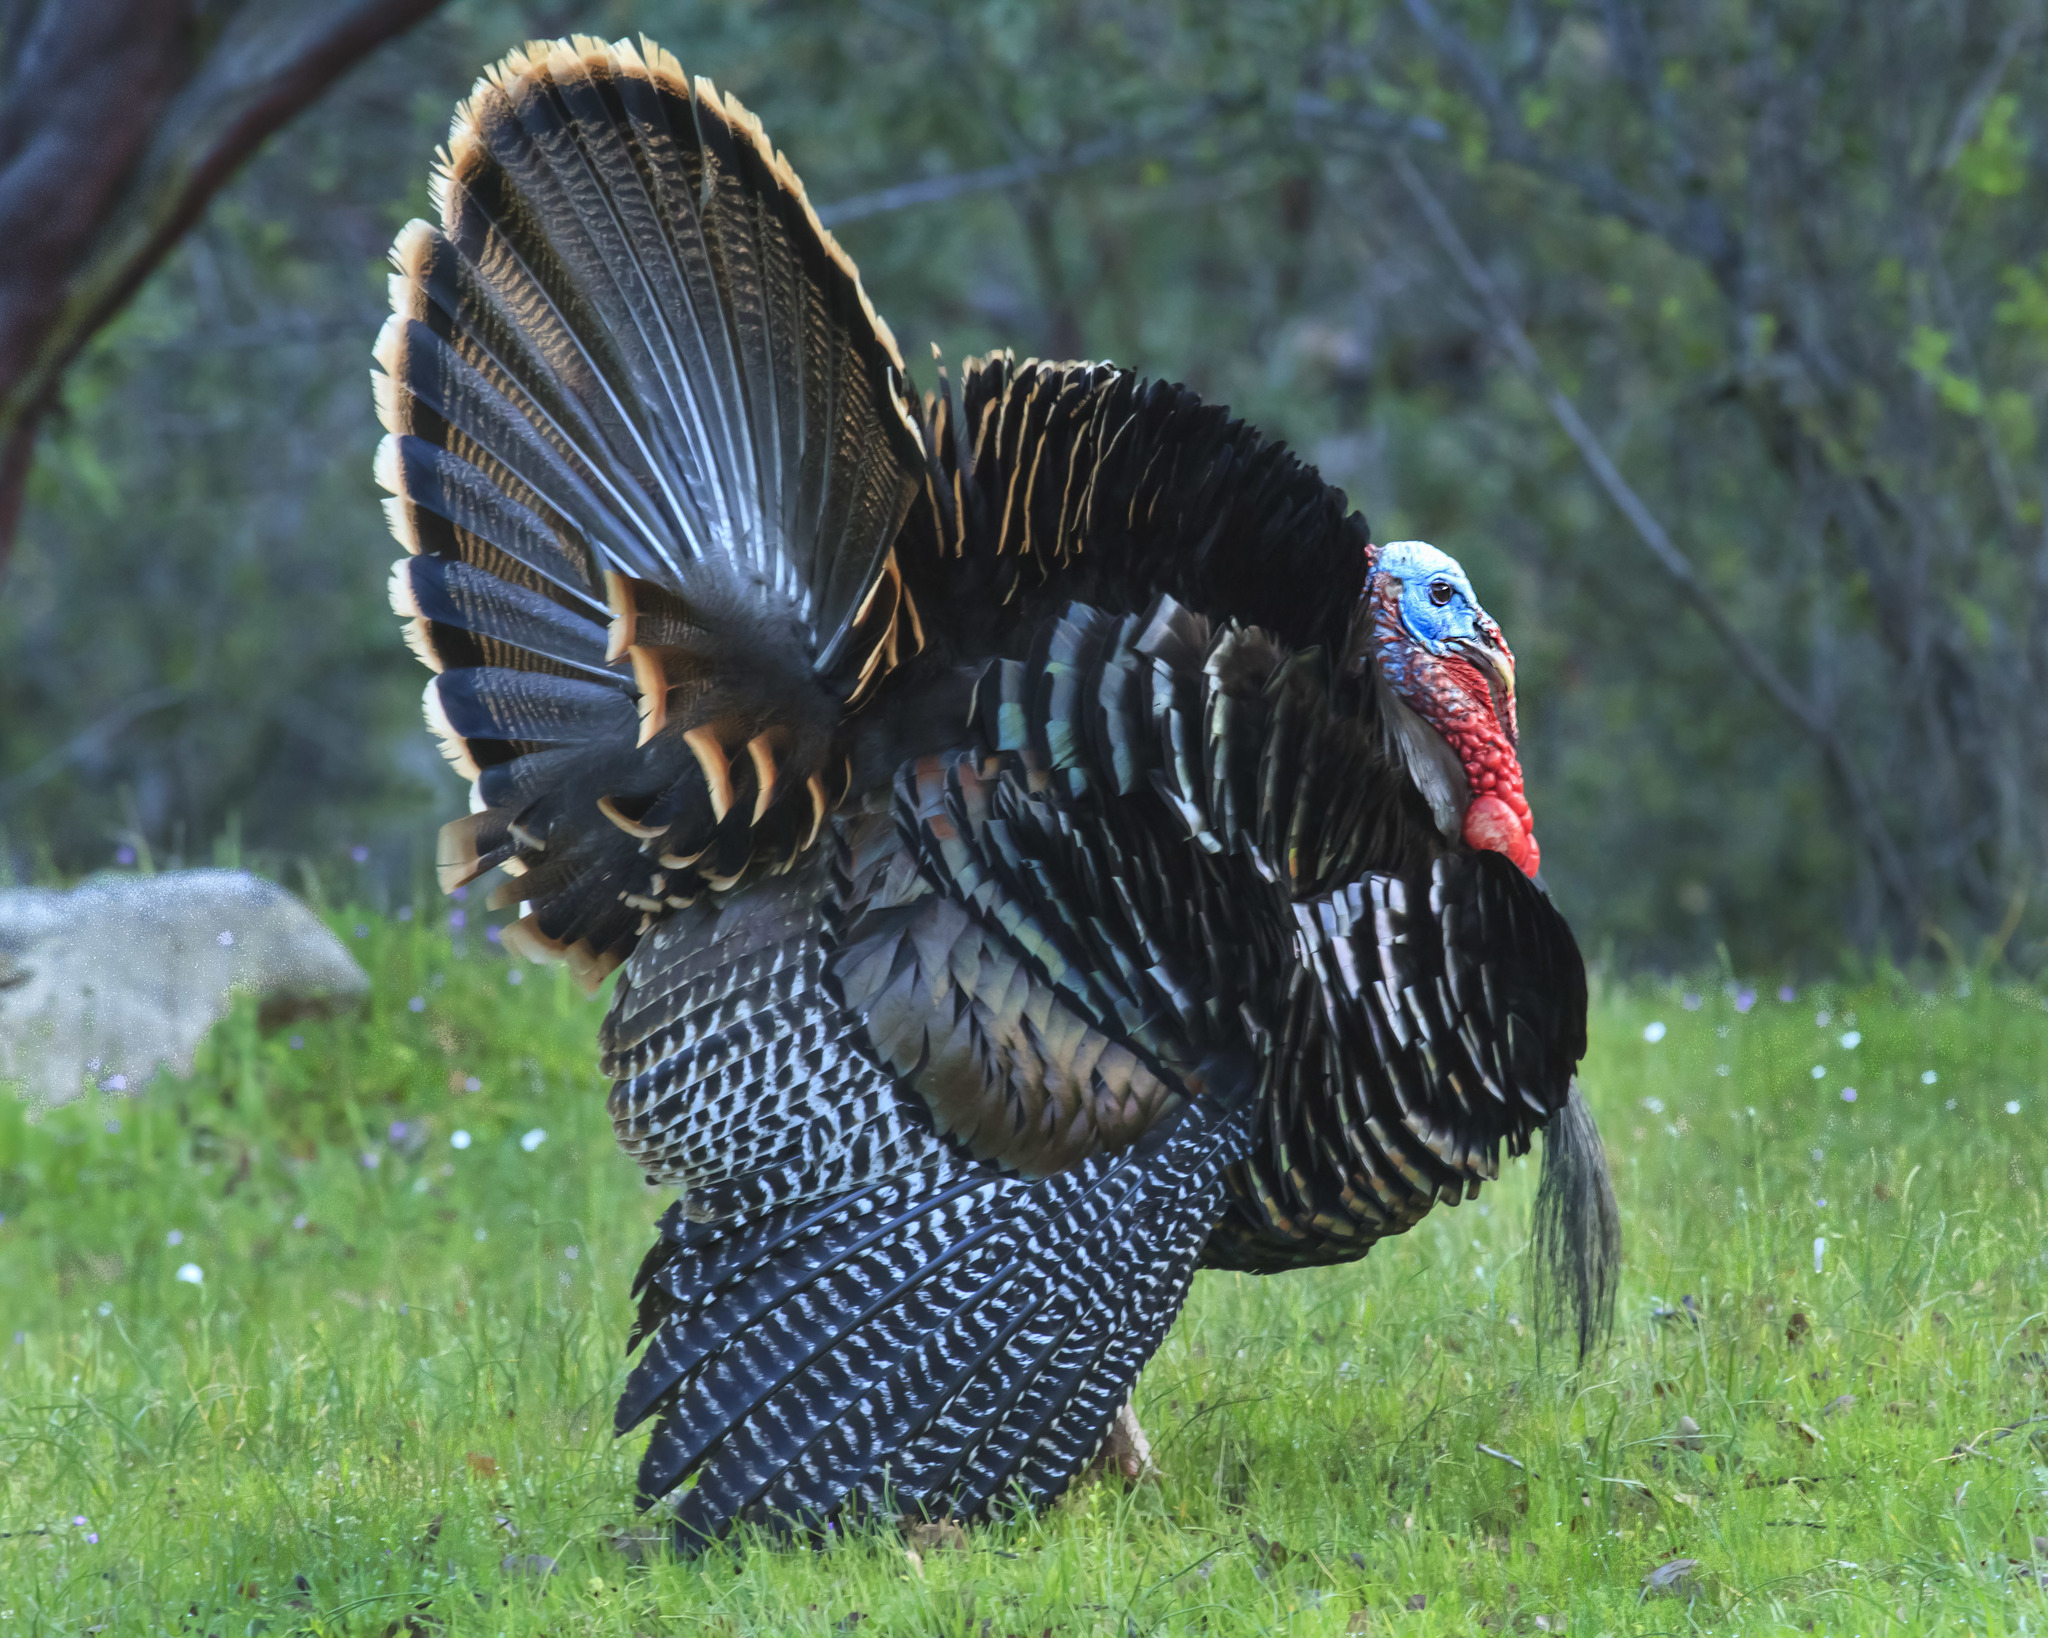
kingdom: Animalia
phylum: Chordata
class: Aves
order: Galliformes
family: Phasianidae
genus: Meleagris
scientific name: Meleagris gallopavo
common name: Wild turkey
